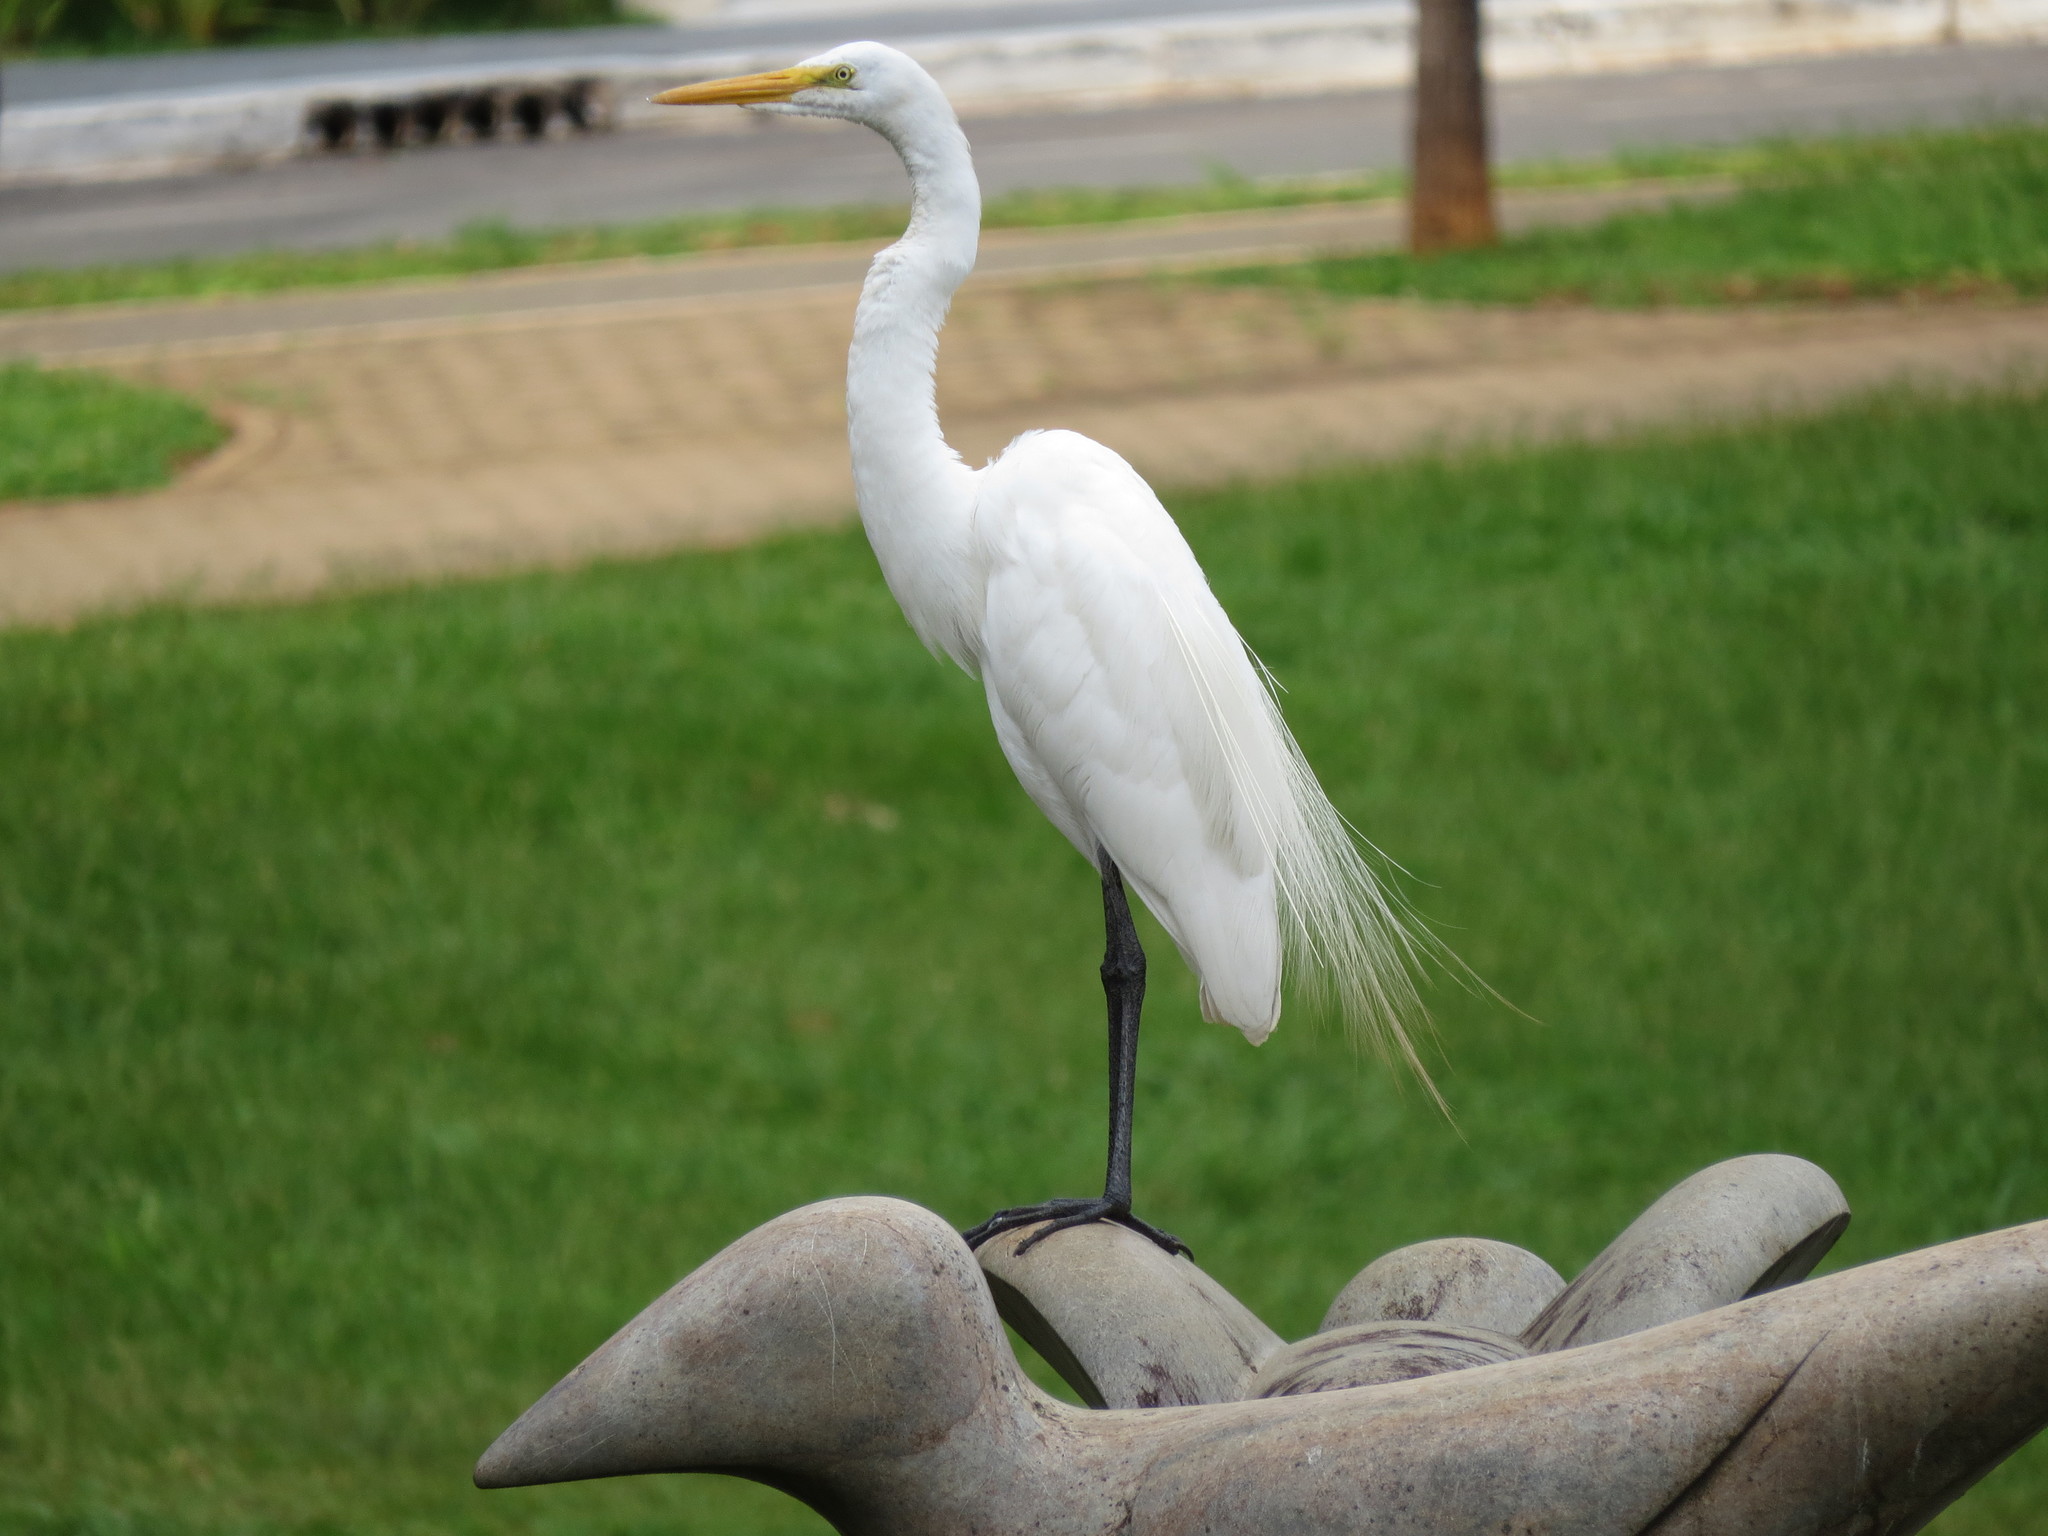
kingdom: Animalia
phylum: Chordata
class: Aves
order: Pelecaniformes
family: Ardeidae
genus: Ardea
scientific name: Ardea alba
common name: Great egret
